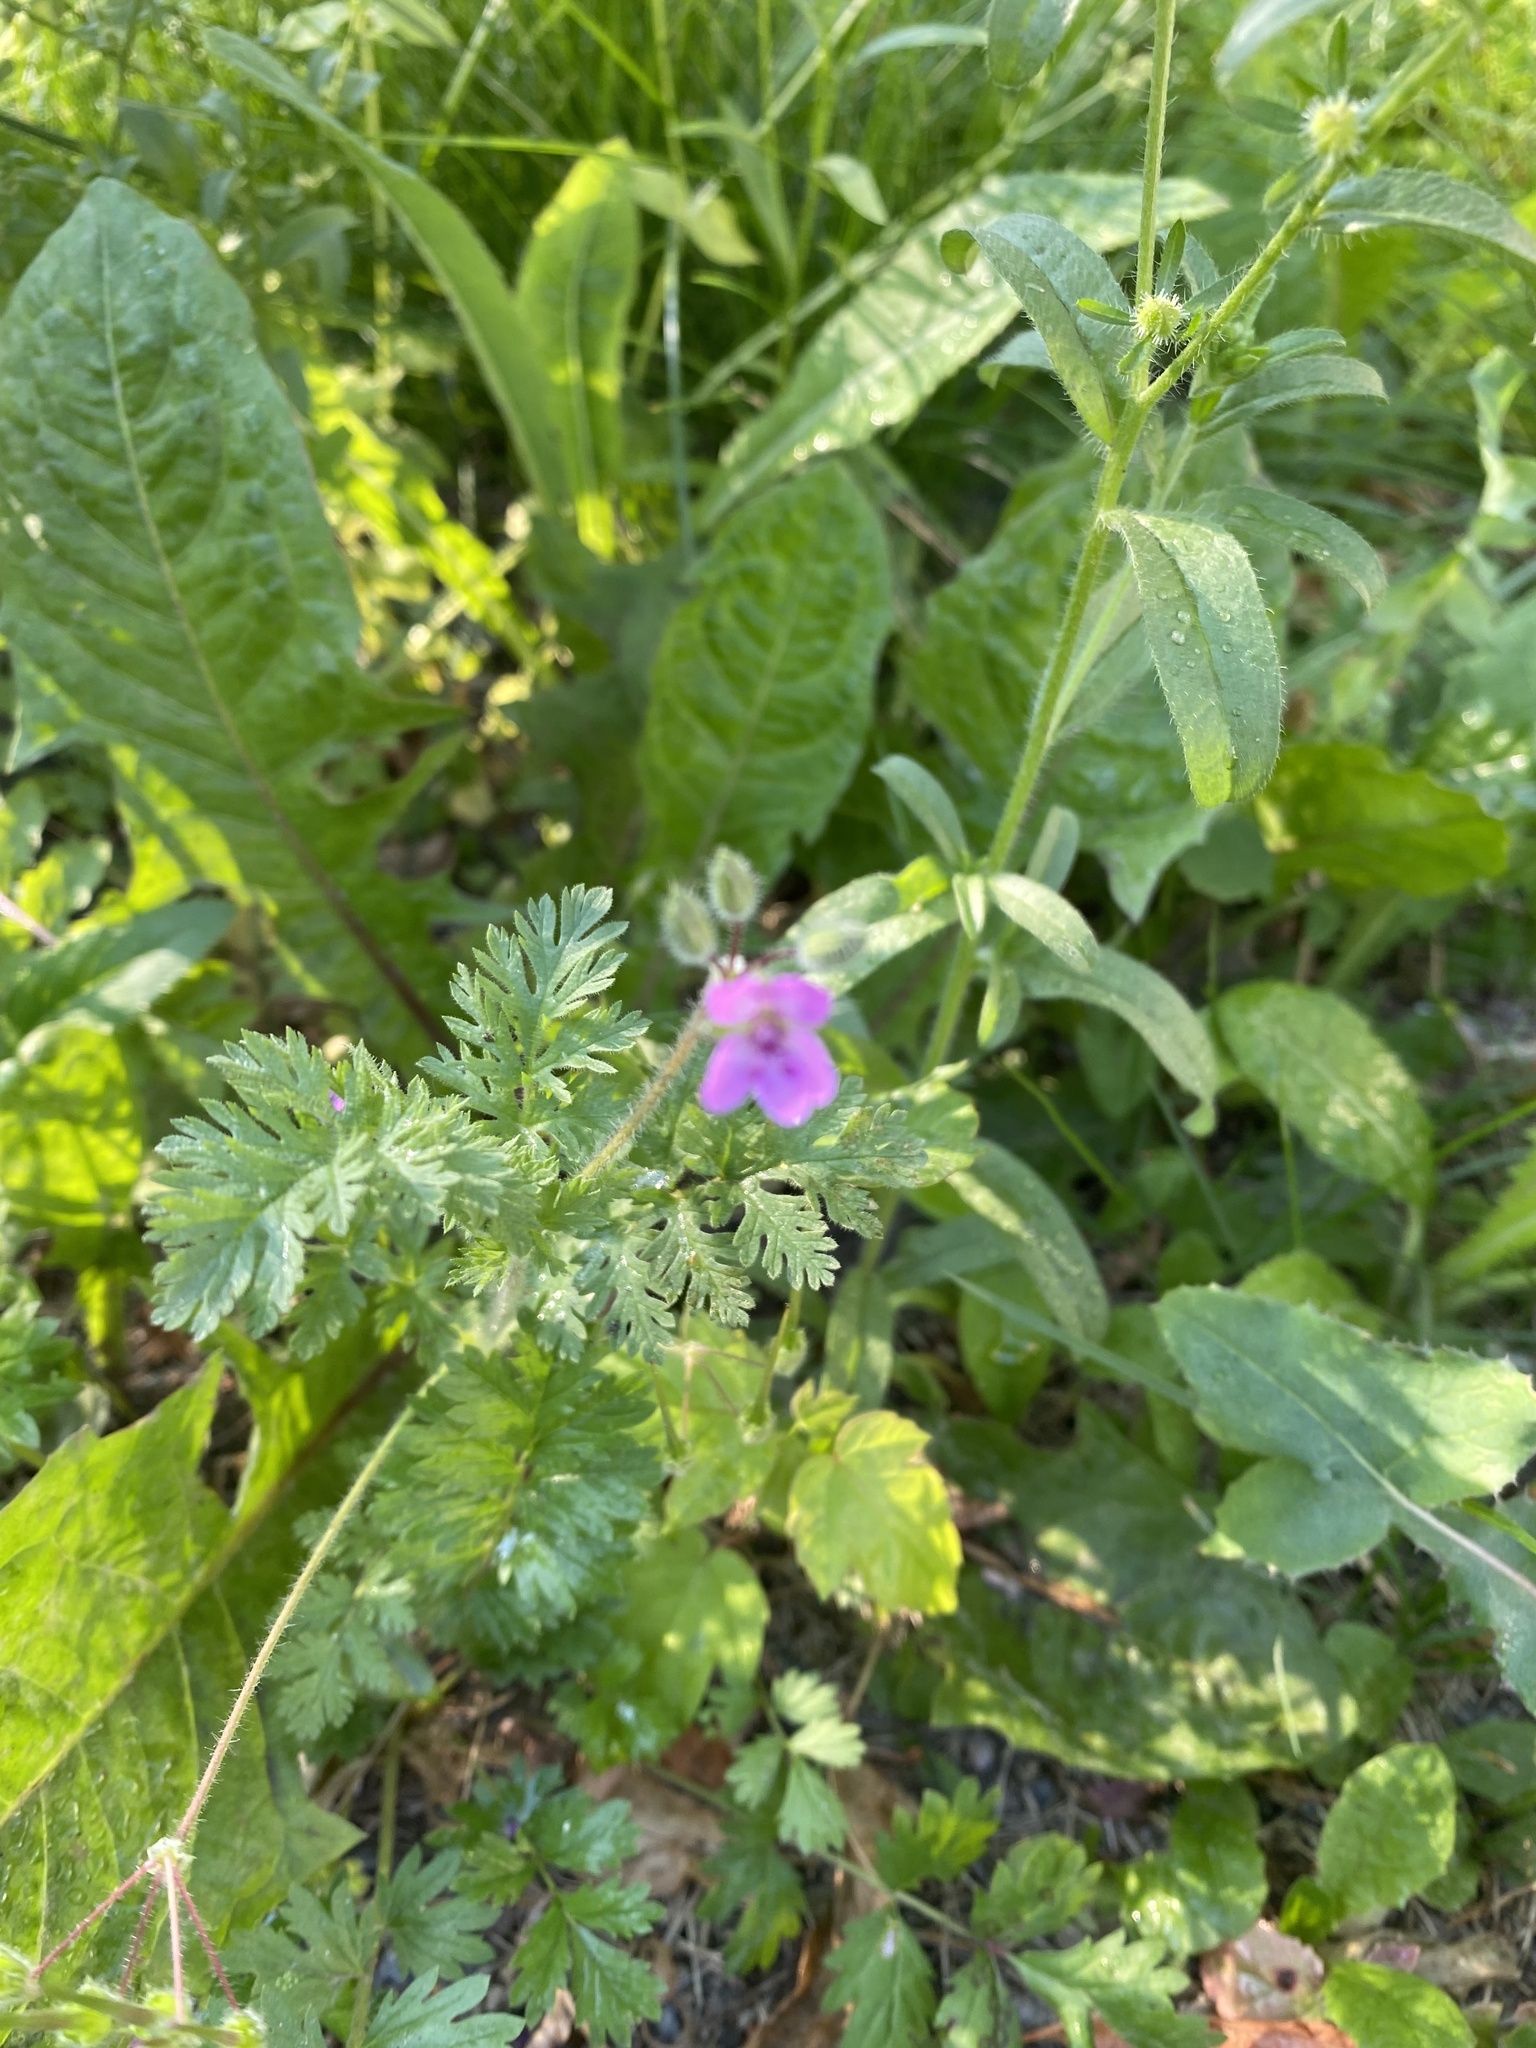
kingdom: Plantae
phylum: Tracheophyta
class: Magnoliopsida
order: Geraniales
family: Geraniaceae
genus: Erodium
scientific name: Erodium cicutarium
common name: Common stork's-bill
